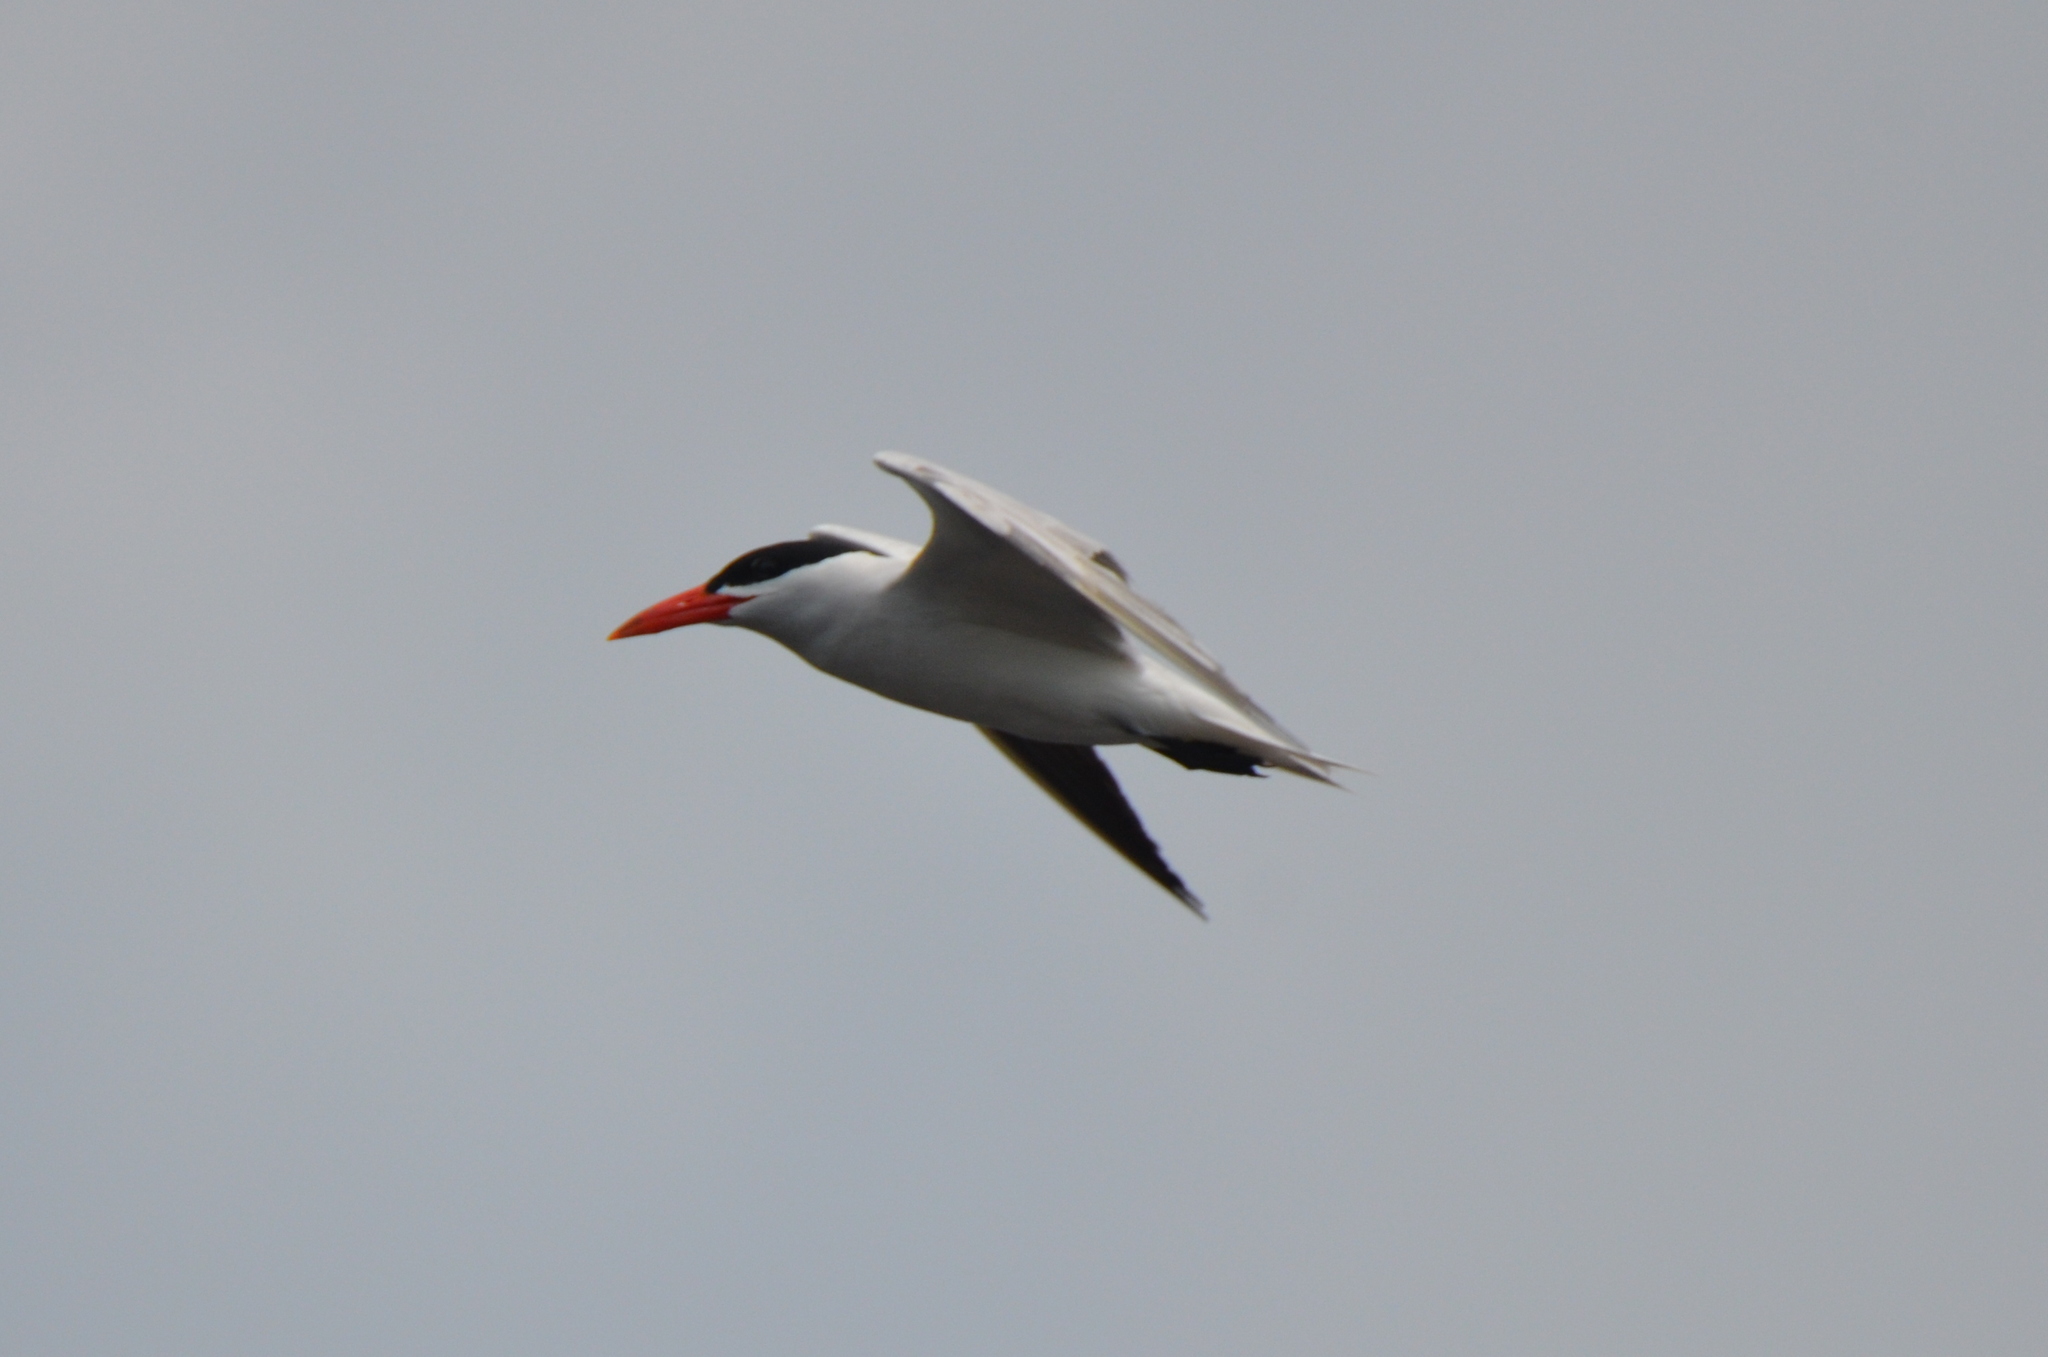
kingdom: Animalia
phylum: Chordata
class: Aves
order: Charadriiformes
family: Laridae
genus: Hydroprogne
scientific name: Hydroprogne caspia
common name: Caspian tern
